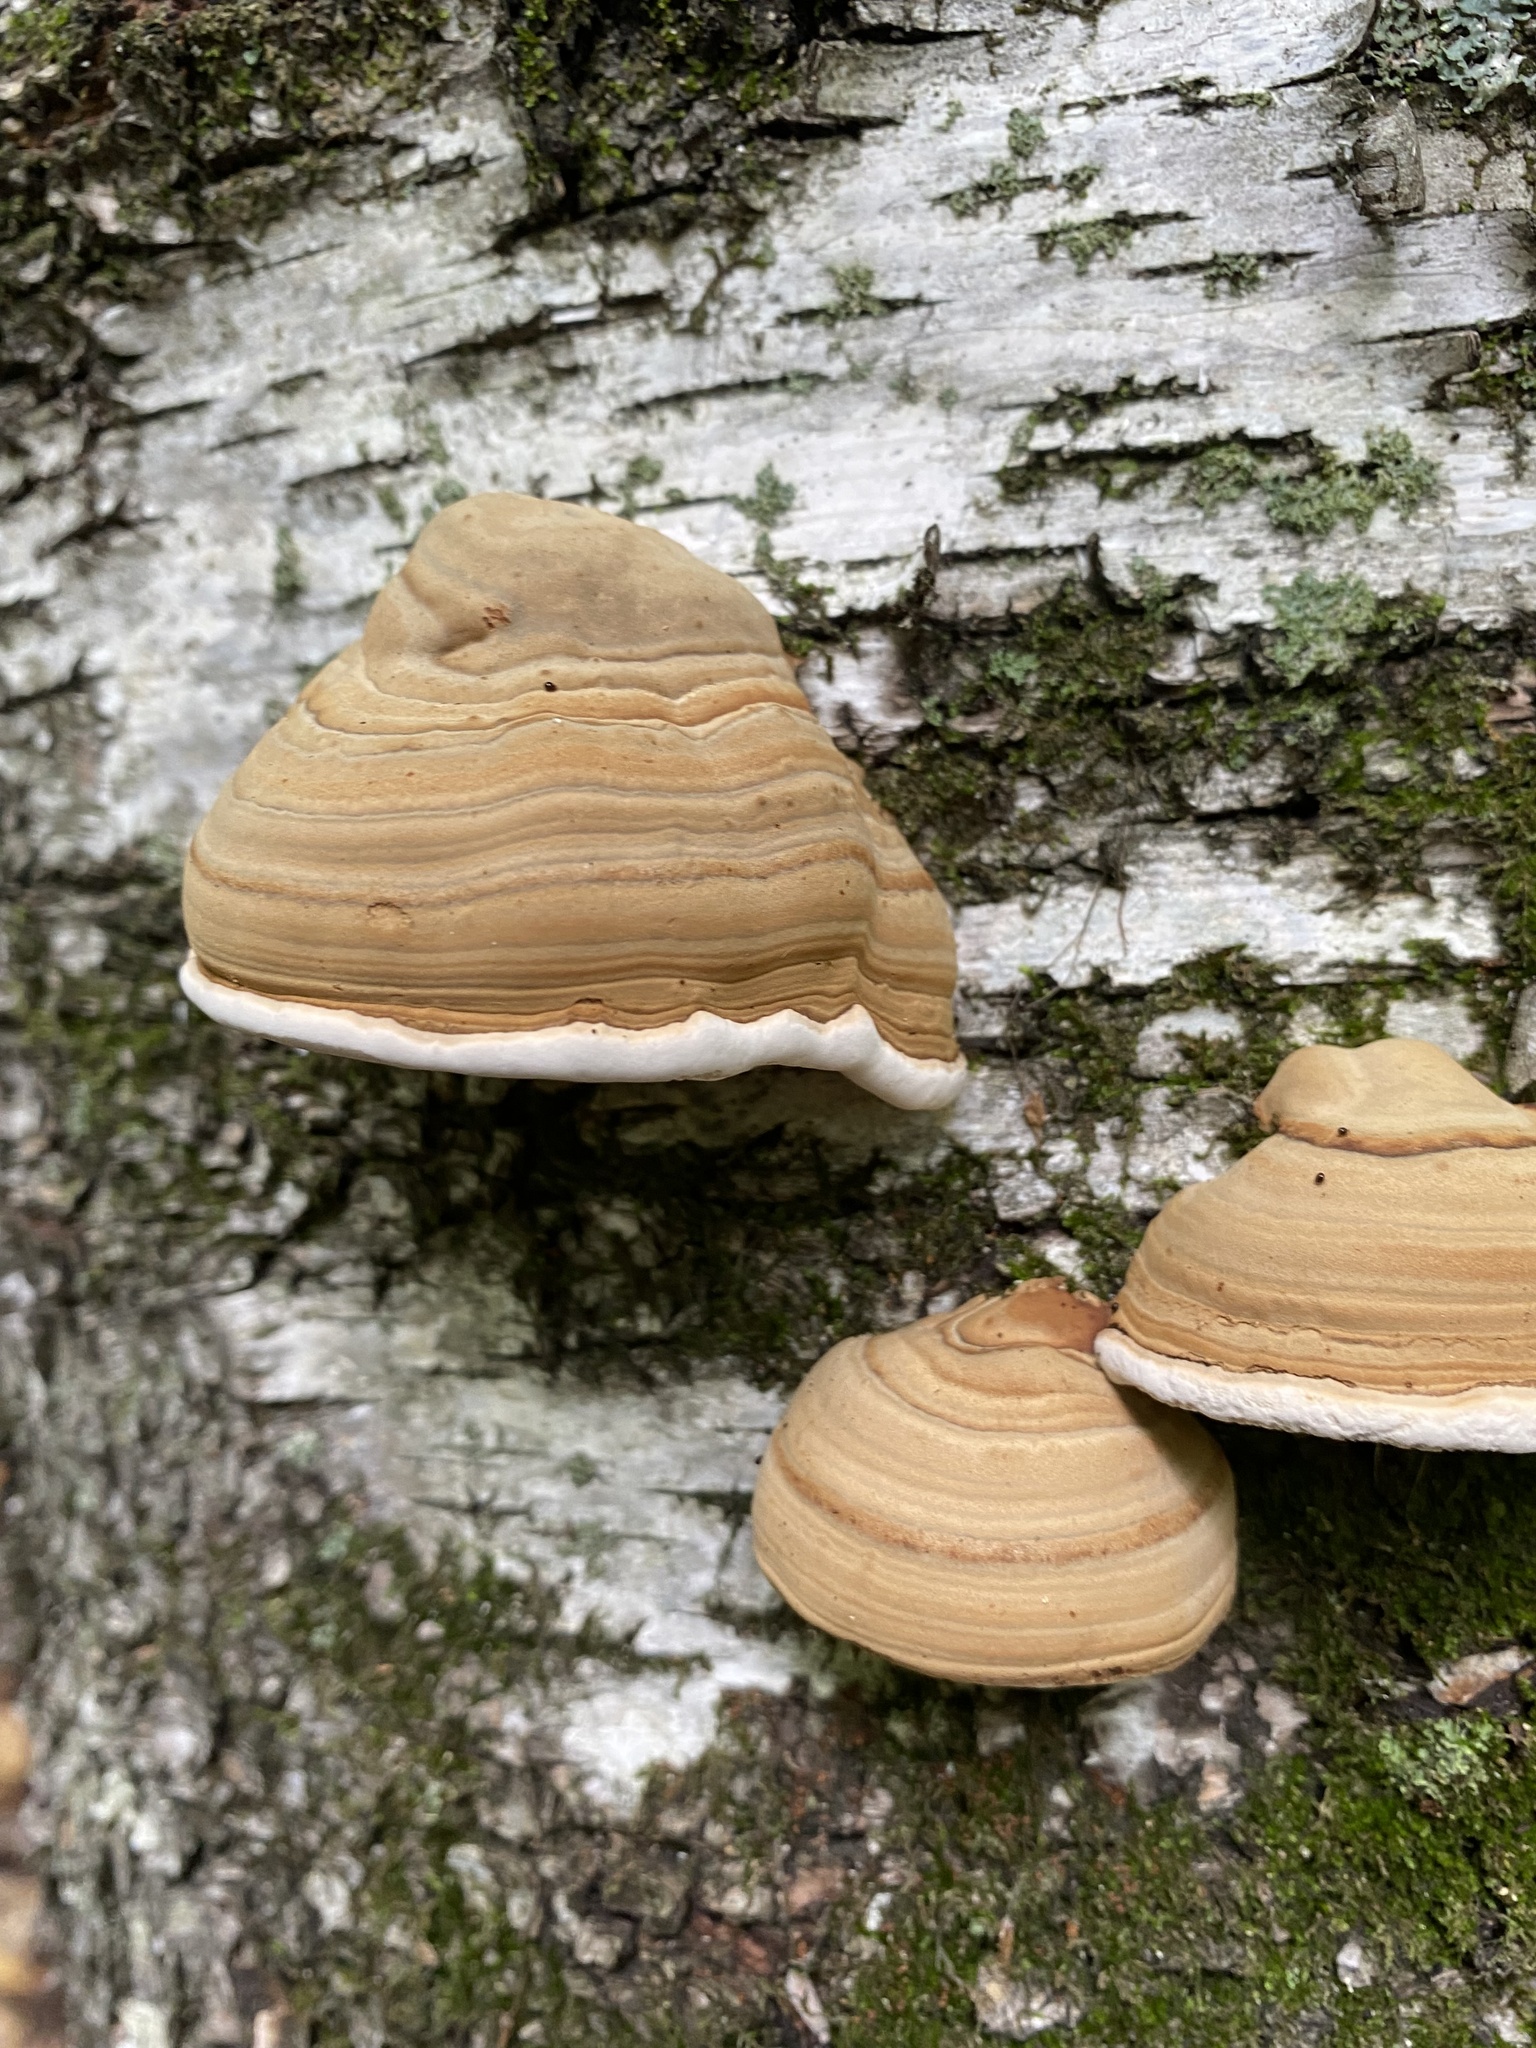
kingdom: Fungi
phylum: Basidiomycota
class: Agaricomycetes
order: Polyporales
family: Polyporaceae
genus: Fomes
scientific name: Fomes fomentarius
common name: Hoof fungus
